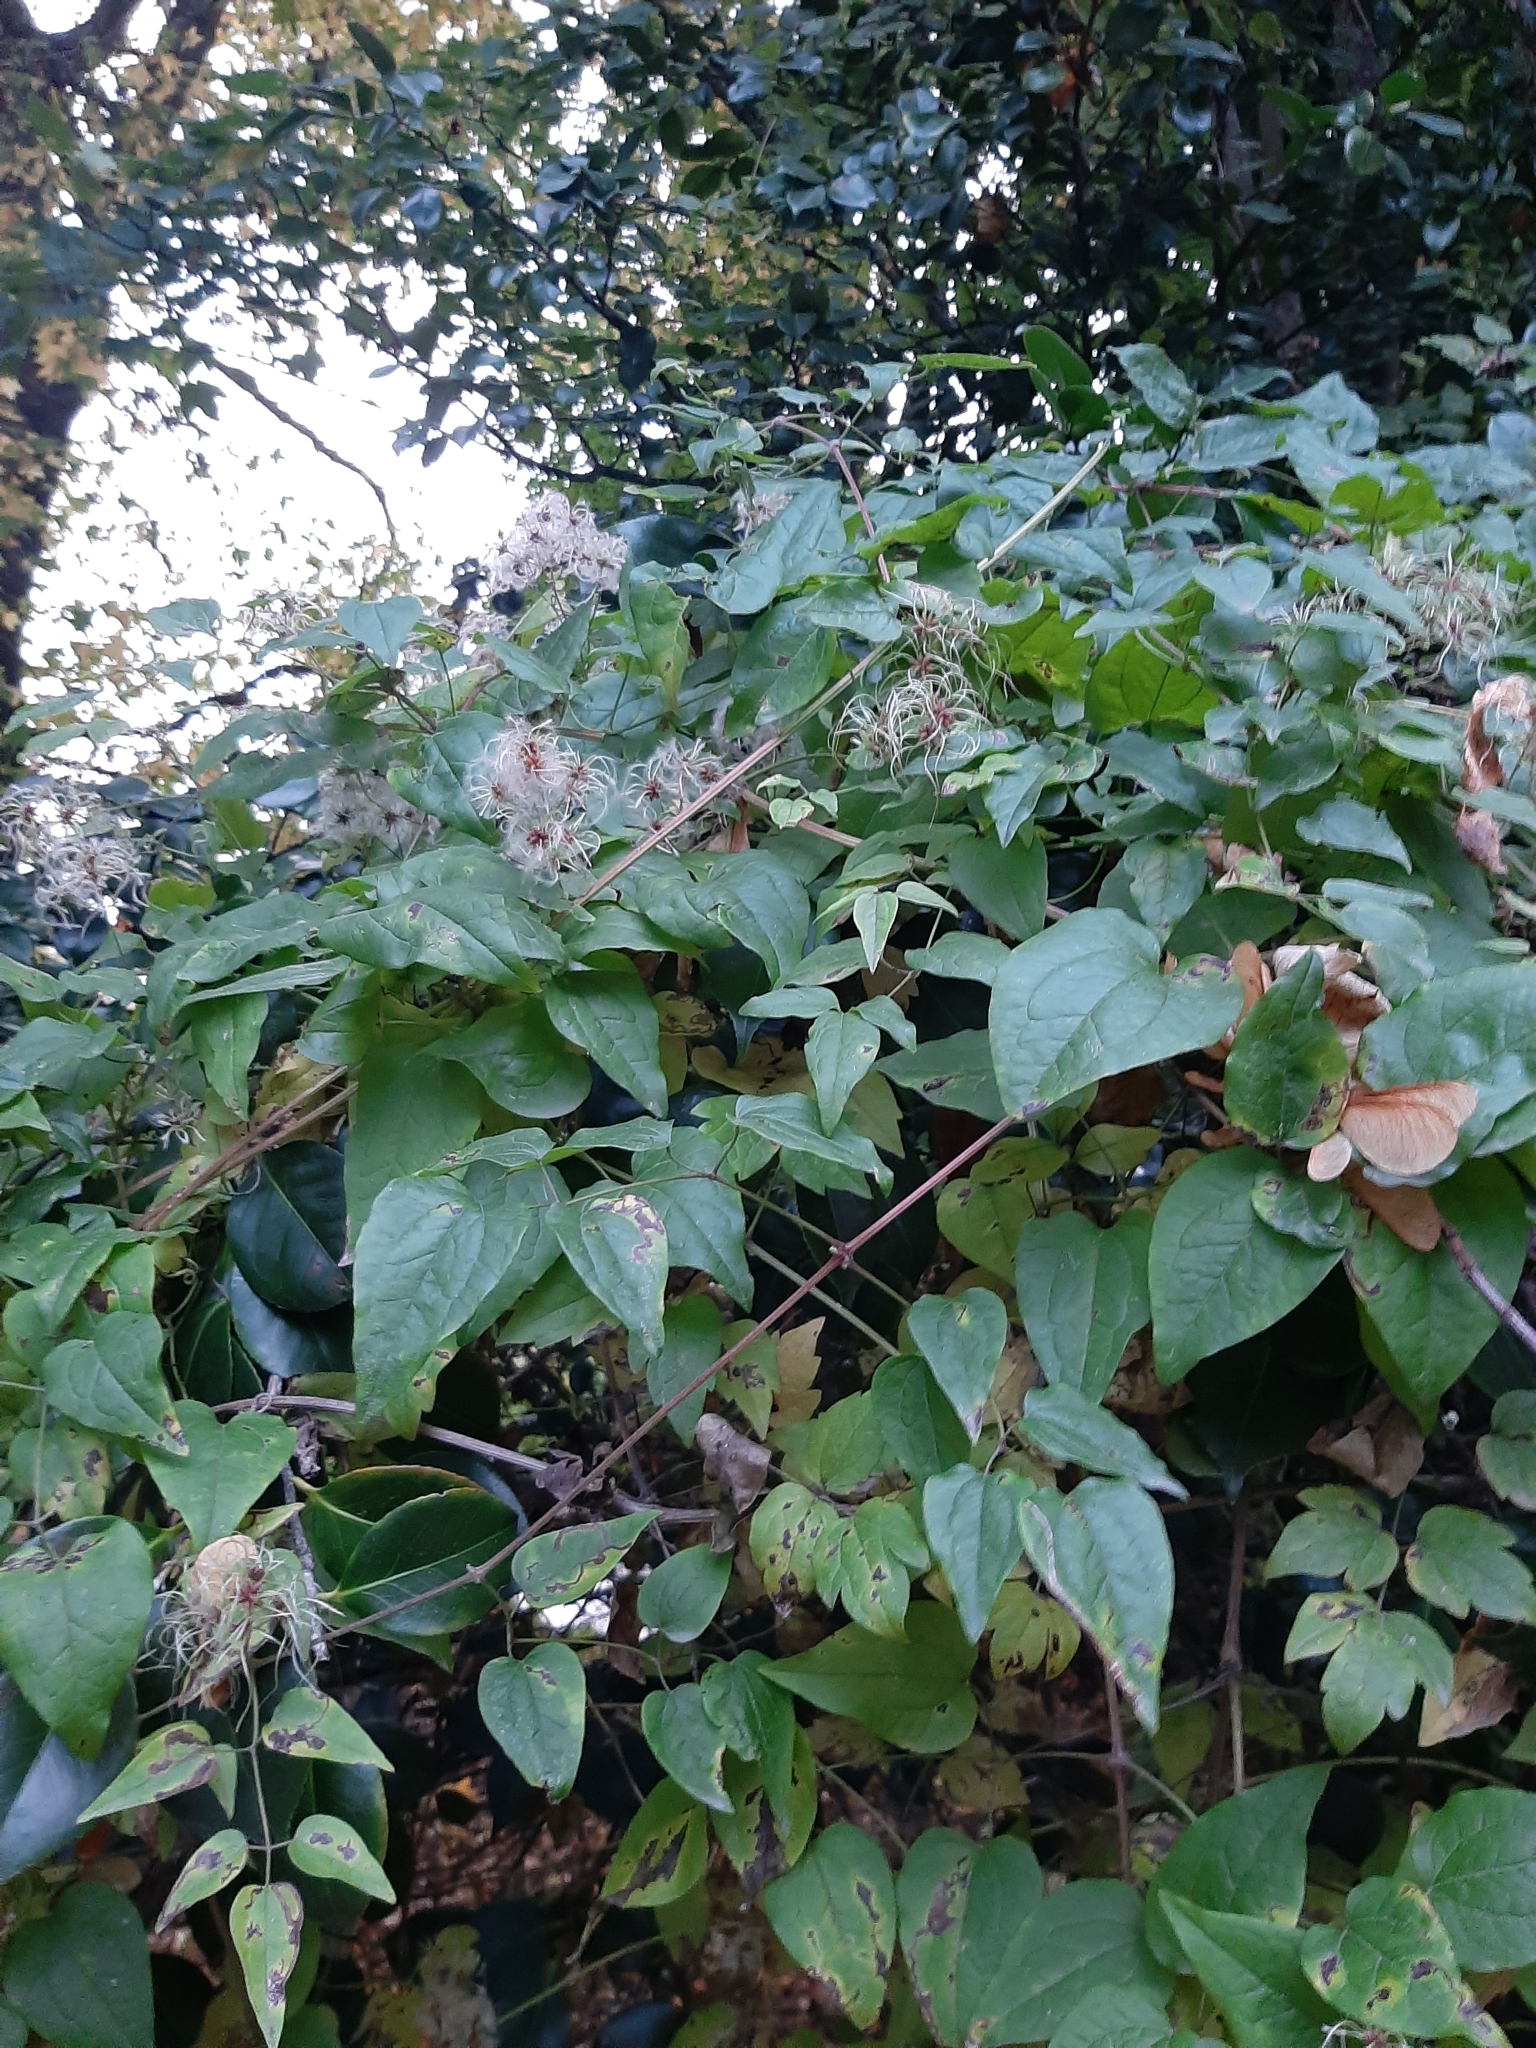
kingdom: Plantae
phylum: Tracheophyta
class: Magnoliopsida
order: Ranunculales
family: Ranunculaceae
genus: Clematis
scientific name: Clematis vitalba
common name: Evergreen clematis
